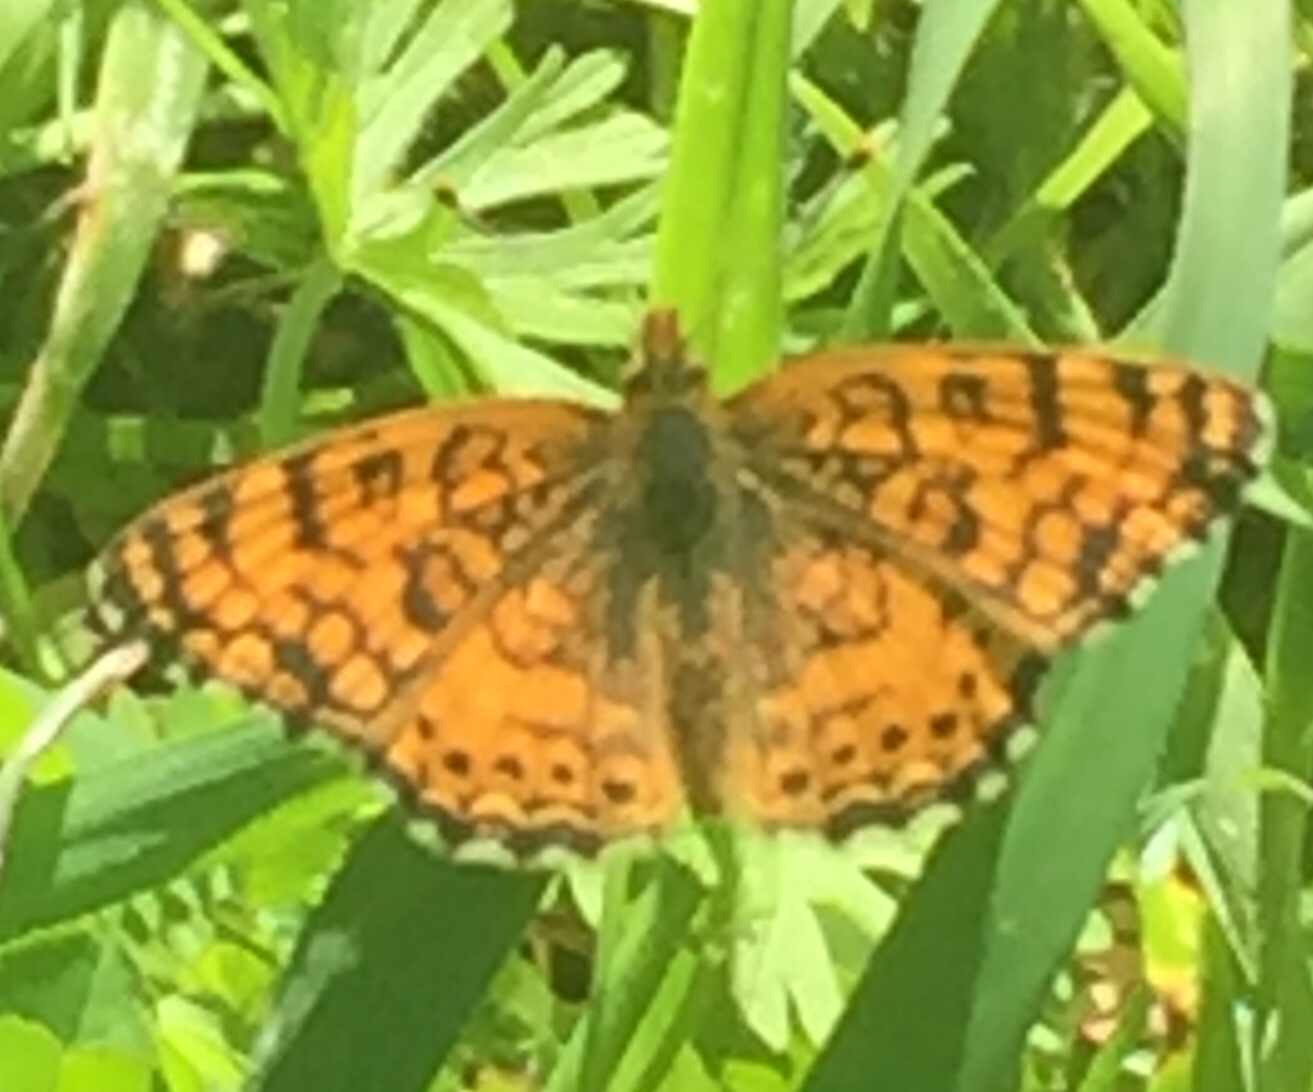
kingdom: Animalia
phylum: Arthropoda
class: Insecta
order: Lepidoptera
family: Nymphalidae
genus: Eresia
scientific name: Eresia aveyrona
